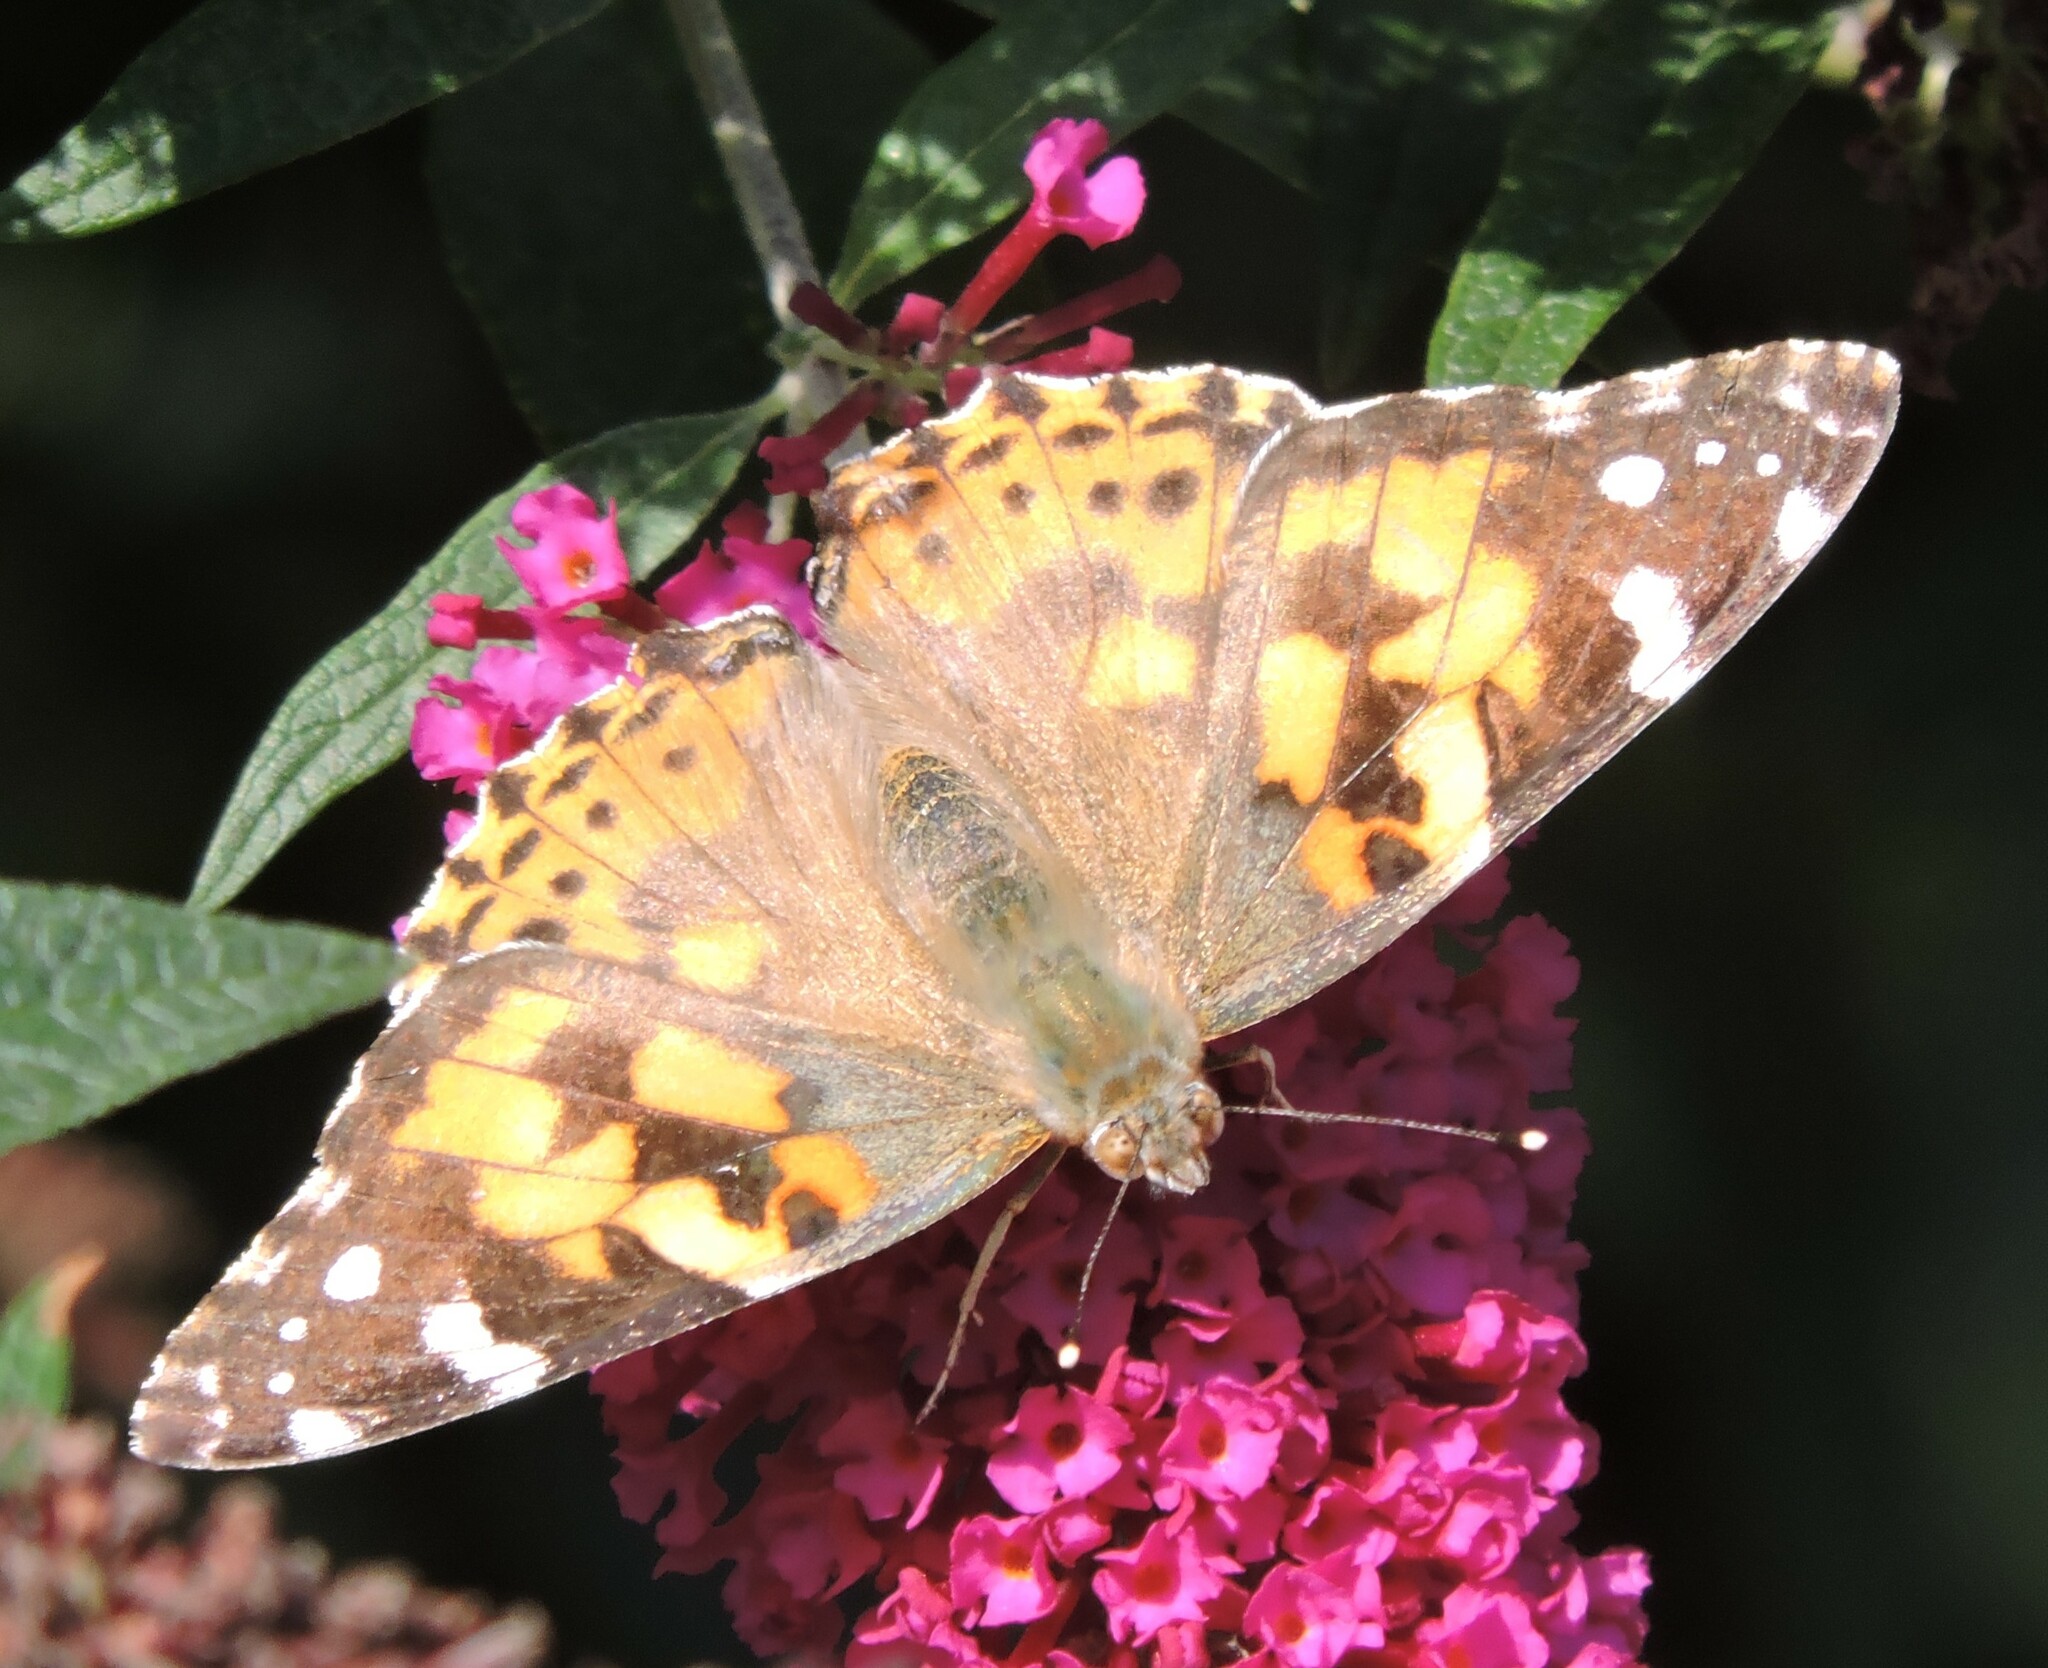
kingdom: Animalia
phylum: Arthropoda
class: Insecta
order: Lepidoptera
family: Nymphalidae
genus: Vanessa
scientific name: Vanessa cardui
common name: Painted lady
